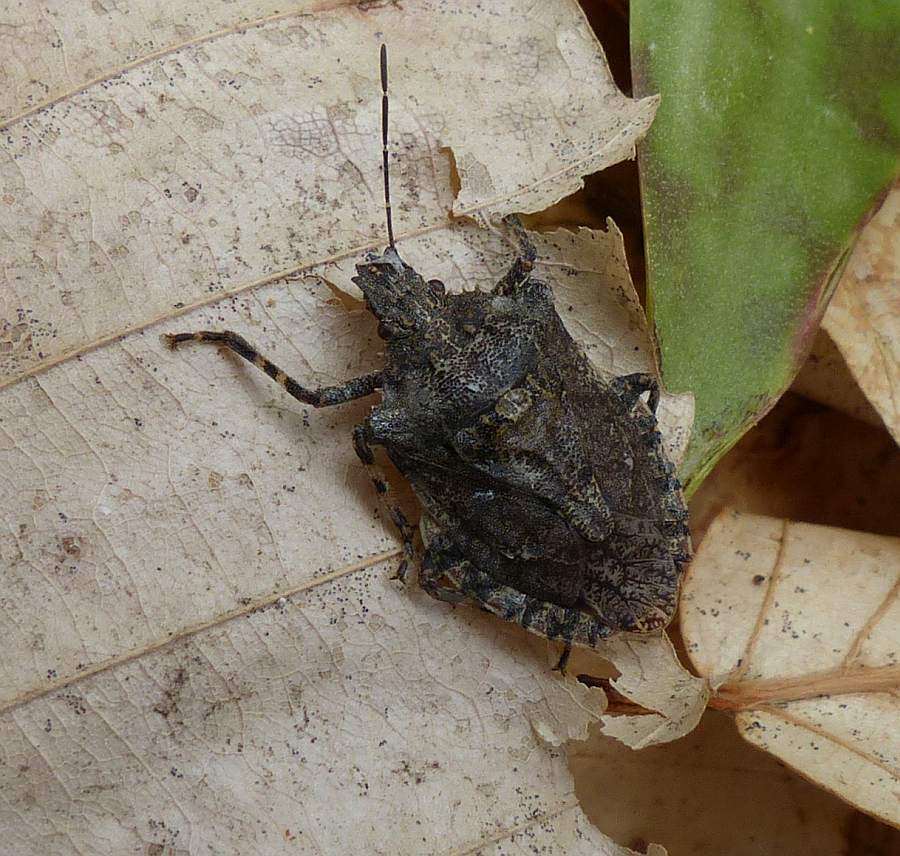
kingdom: Animalia
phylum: Arthropoda
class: Insecta
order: Hemiptera
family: Pentatomidae
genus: Brochymena
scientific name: Brochymena quadripustulata
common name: Four-humped stink bug
